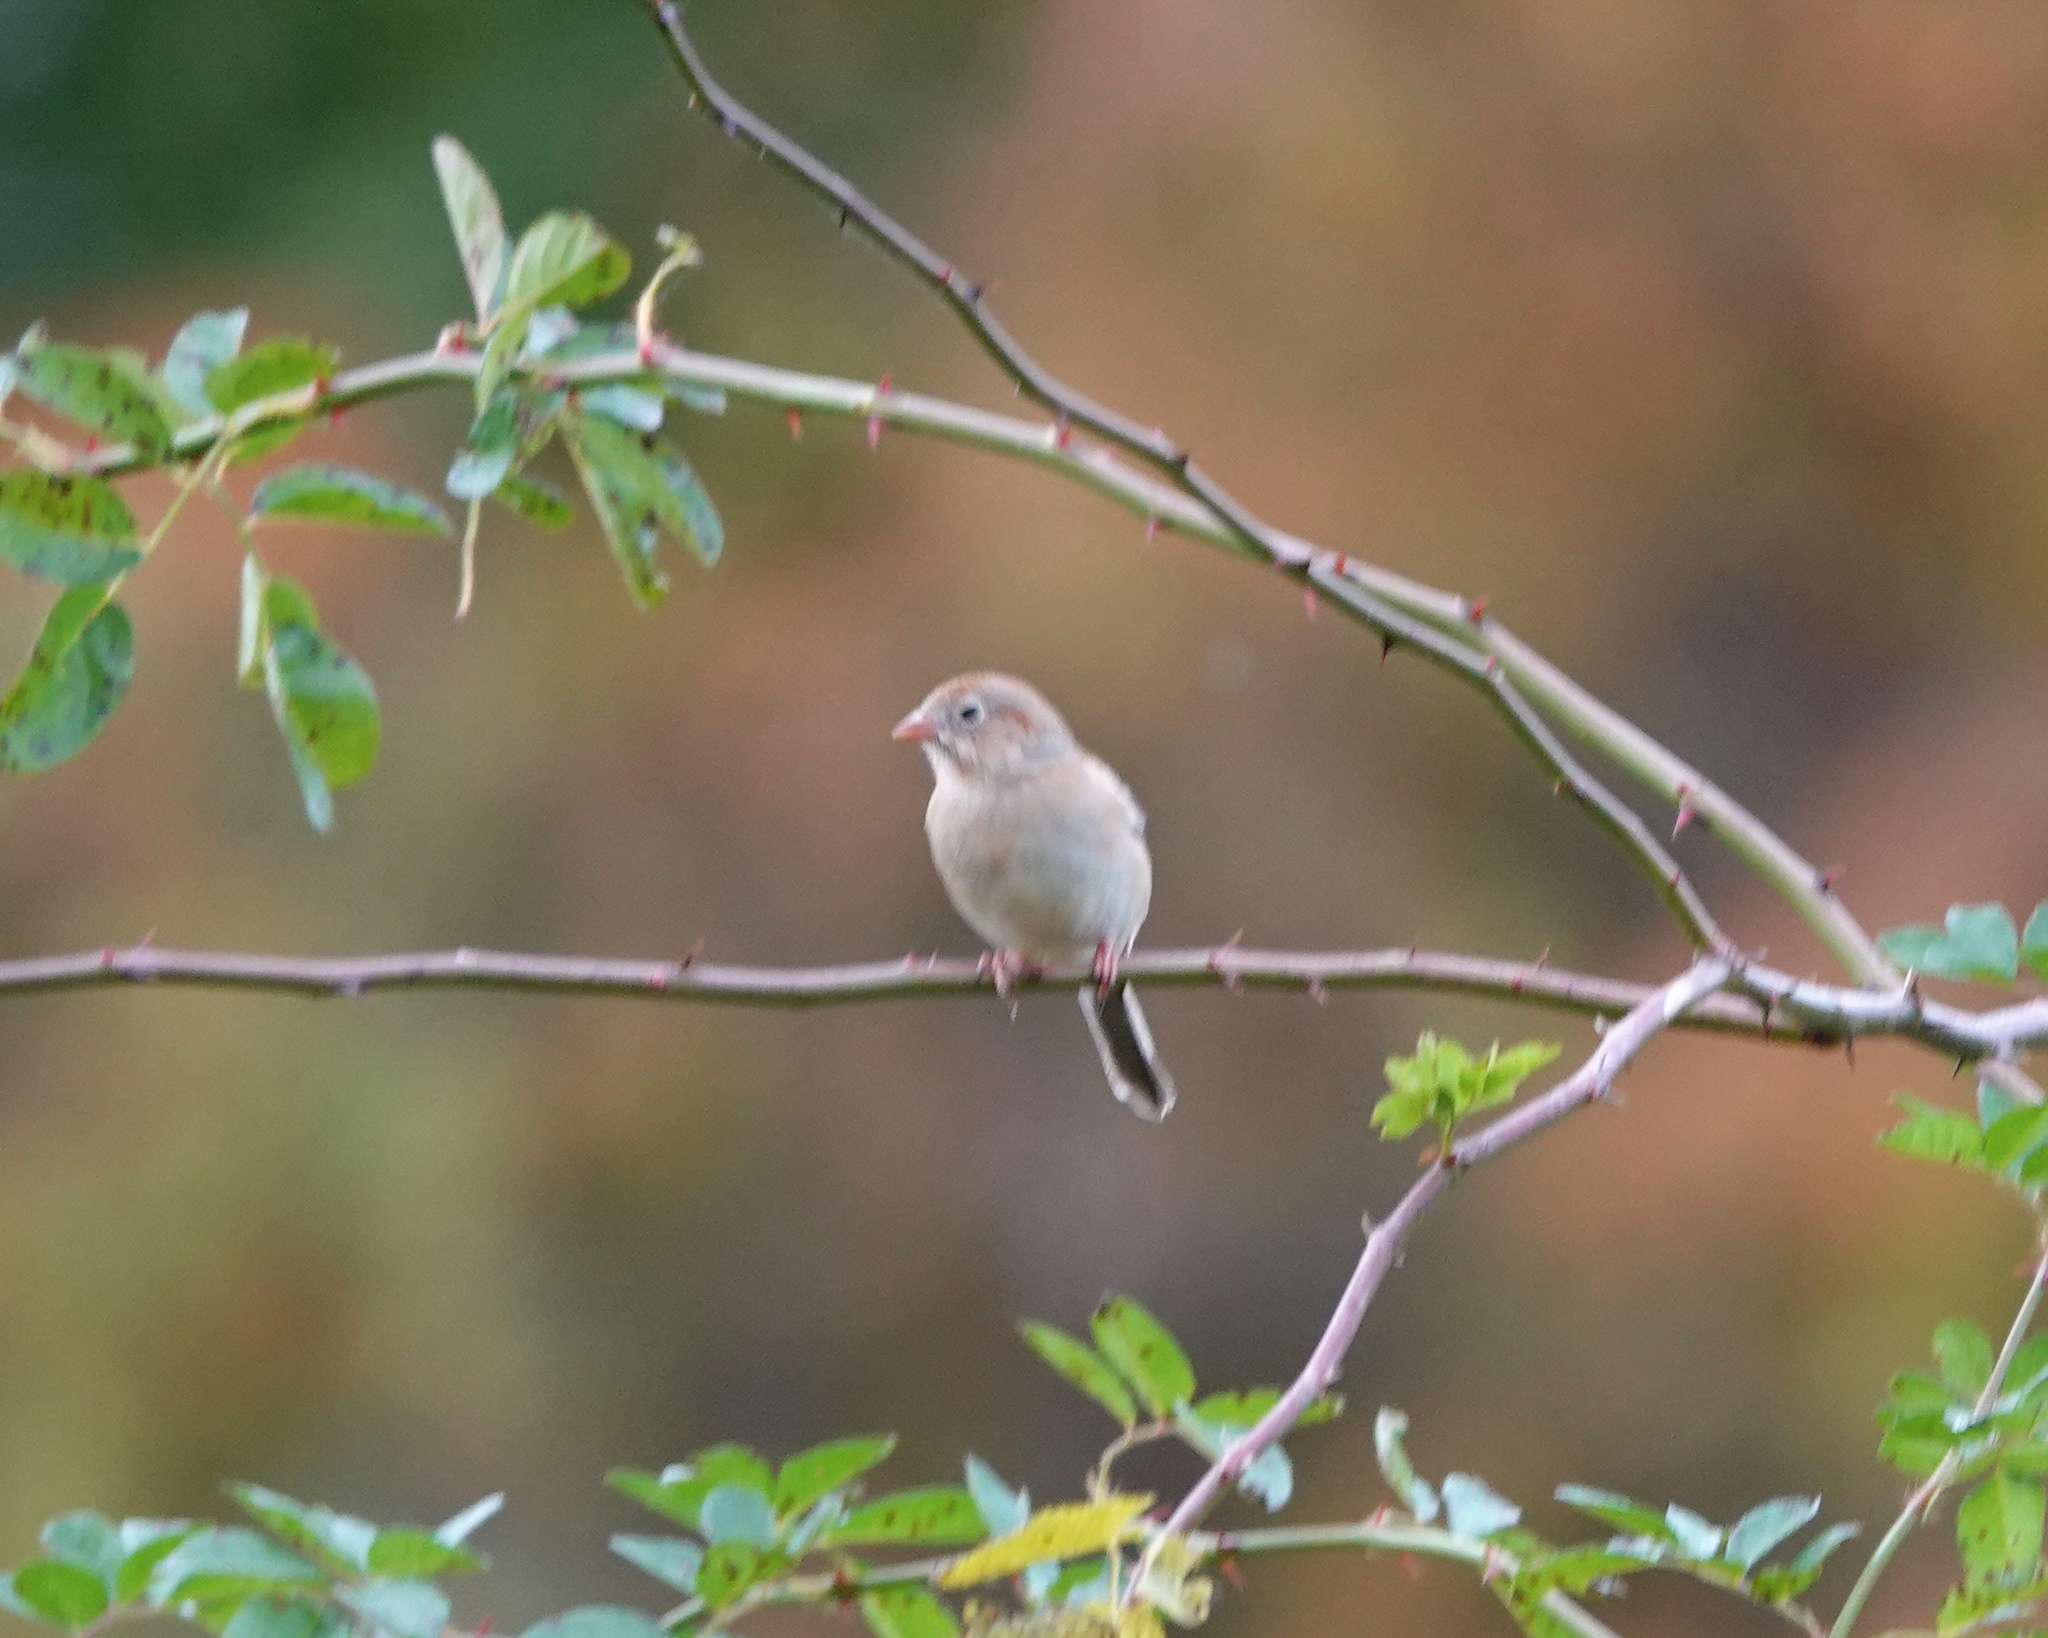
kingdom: Animalia
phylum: Chordata
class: Aves
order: Passeriformes
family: Passerellidae
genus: Spizella
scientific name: Spizella pusilla
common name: Field sparrow
